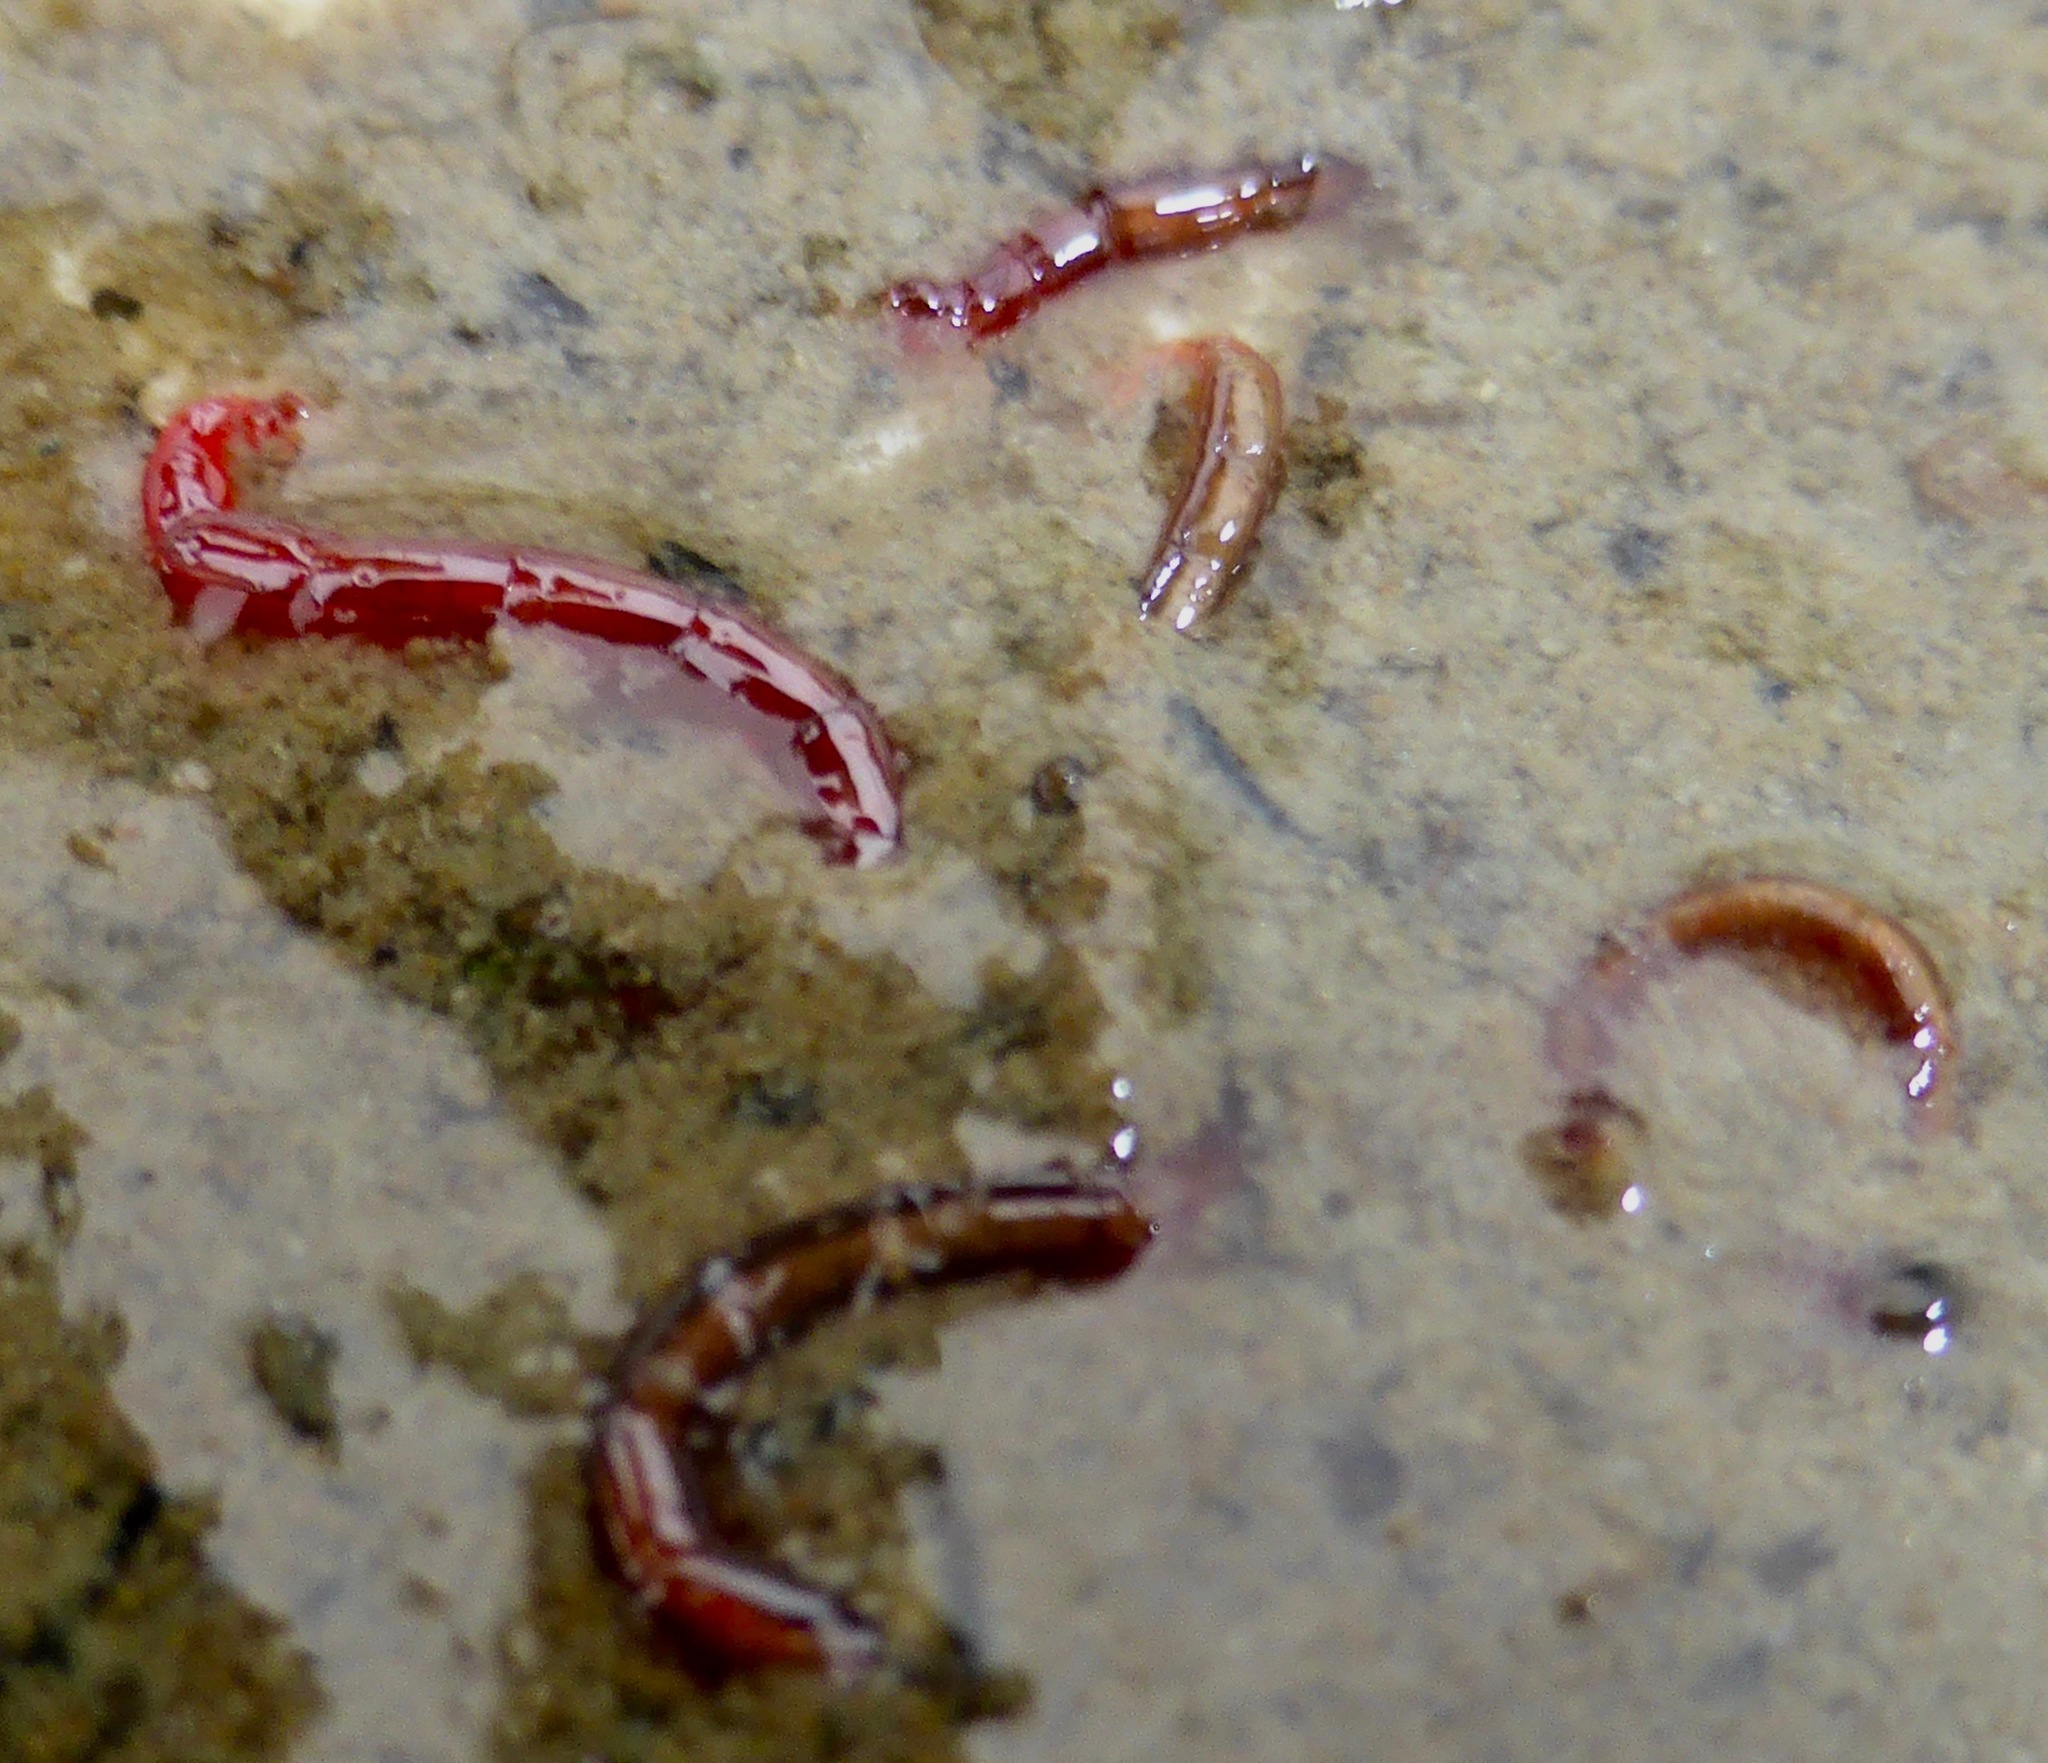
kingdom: Animalia
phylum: Arthropoda
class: Insecta
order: Diptera
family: Chironomidae
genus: Chironomus
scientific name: Chironomus zealandicus
